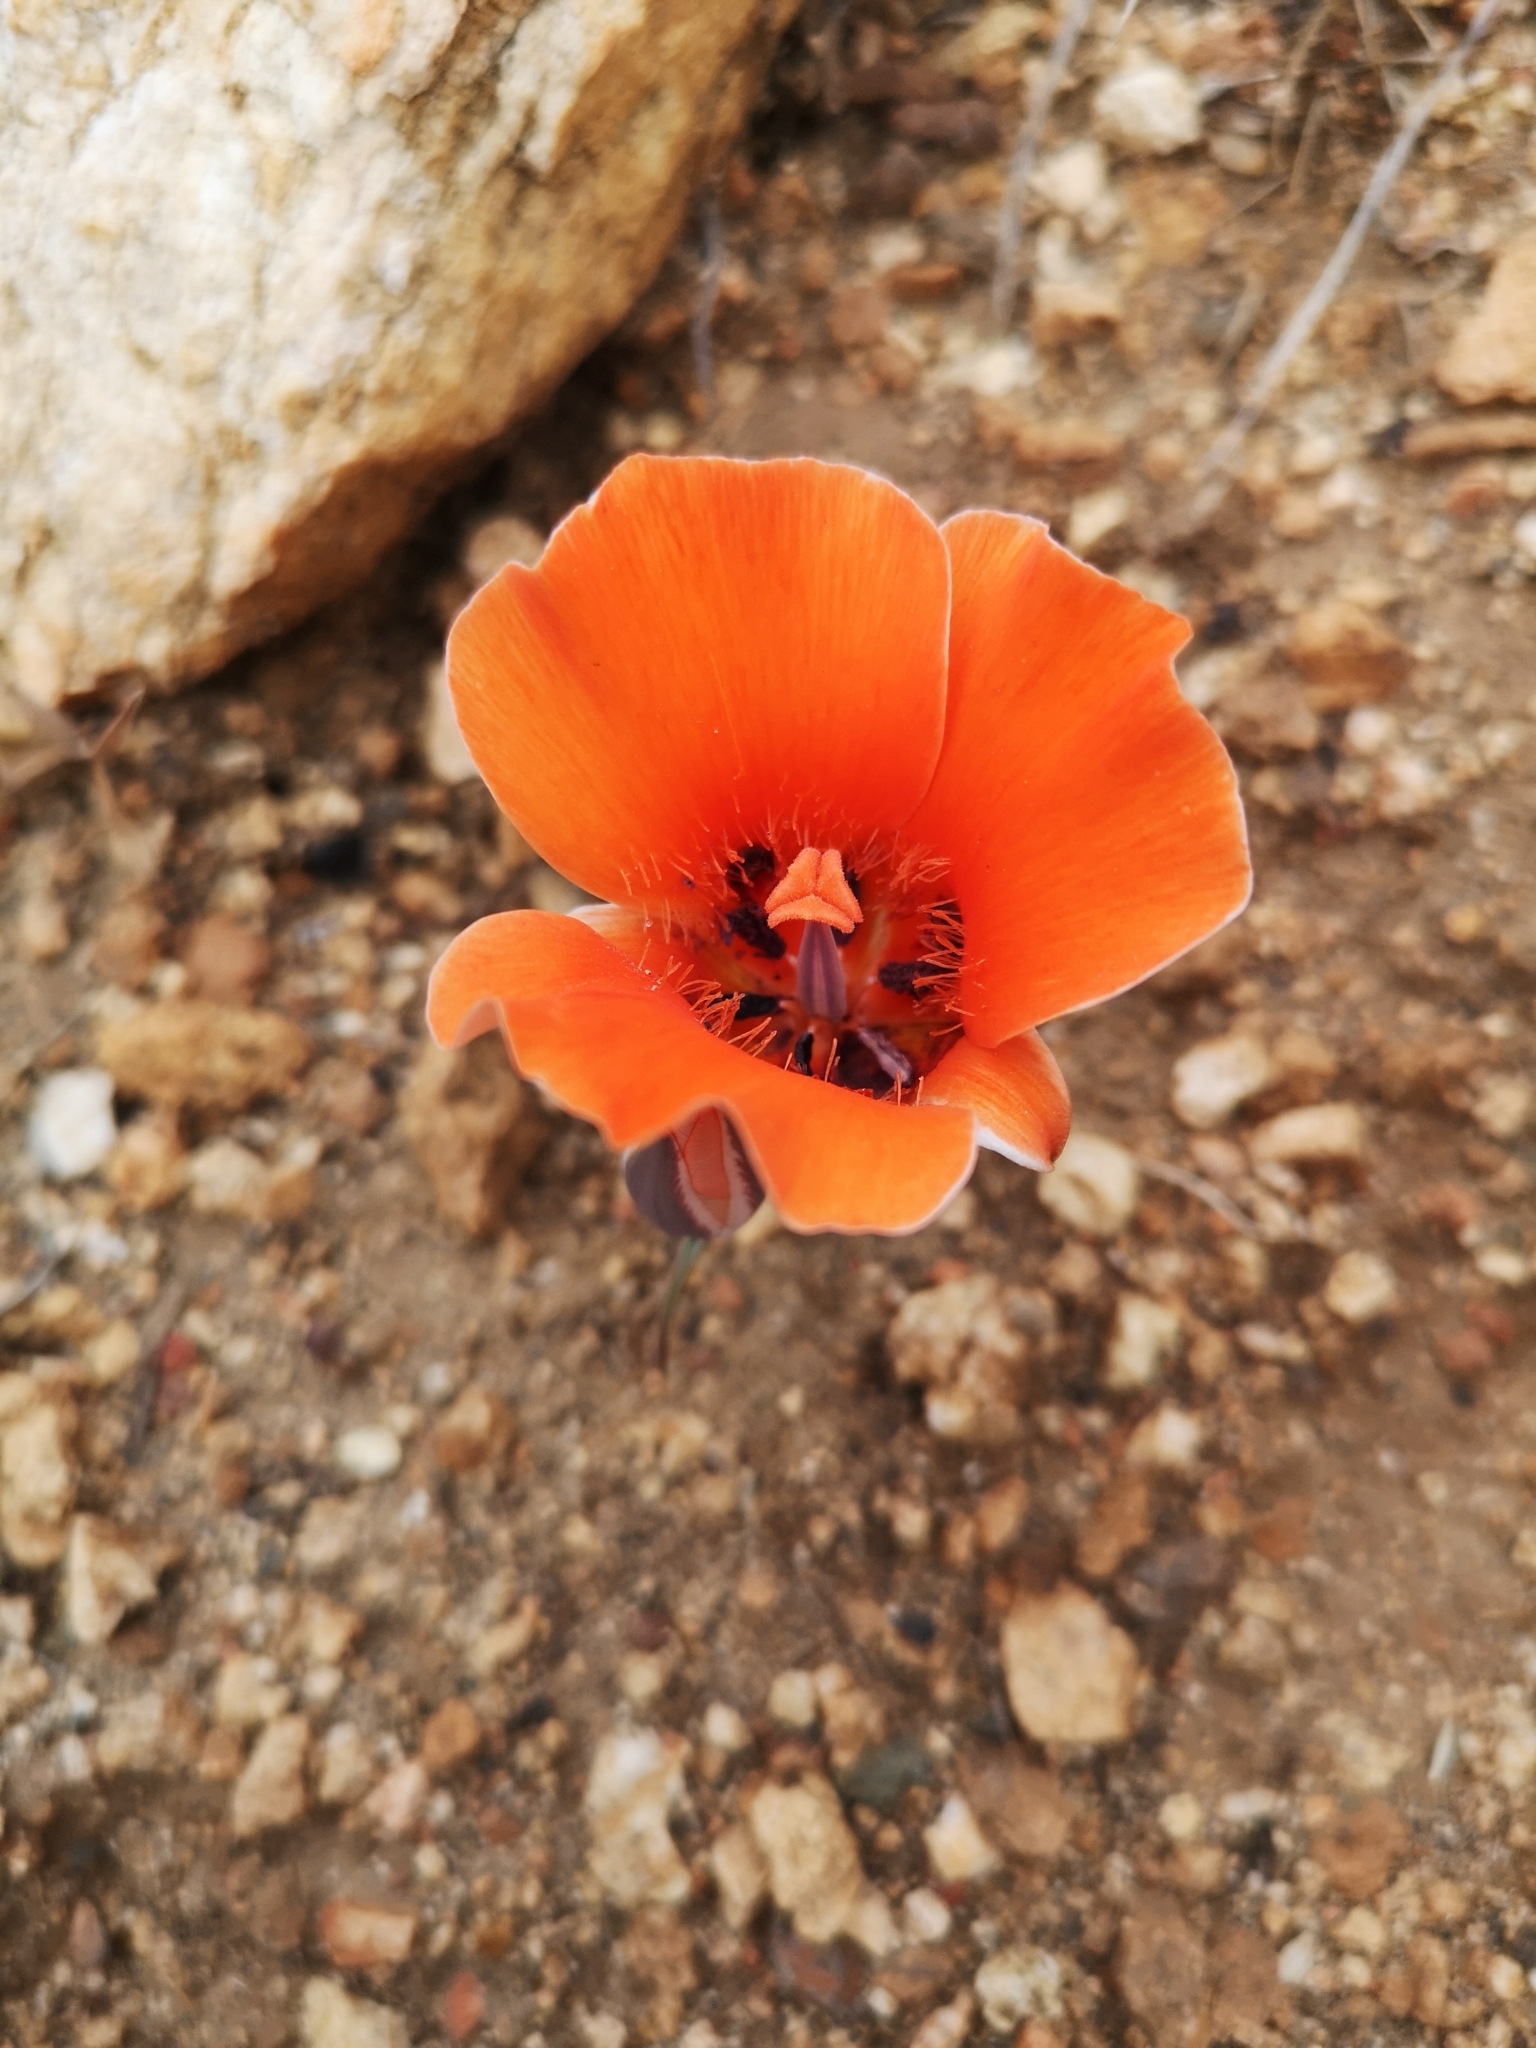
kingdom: Plantae
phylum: Tracheophyta
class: Liliopsida
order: Liliales
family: Liliaceae
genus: Calochortus
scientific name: Calochortus kennedyi
